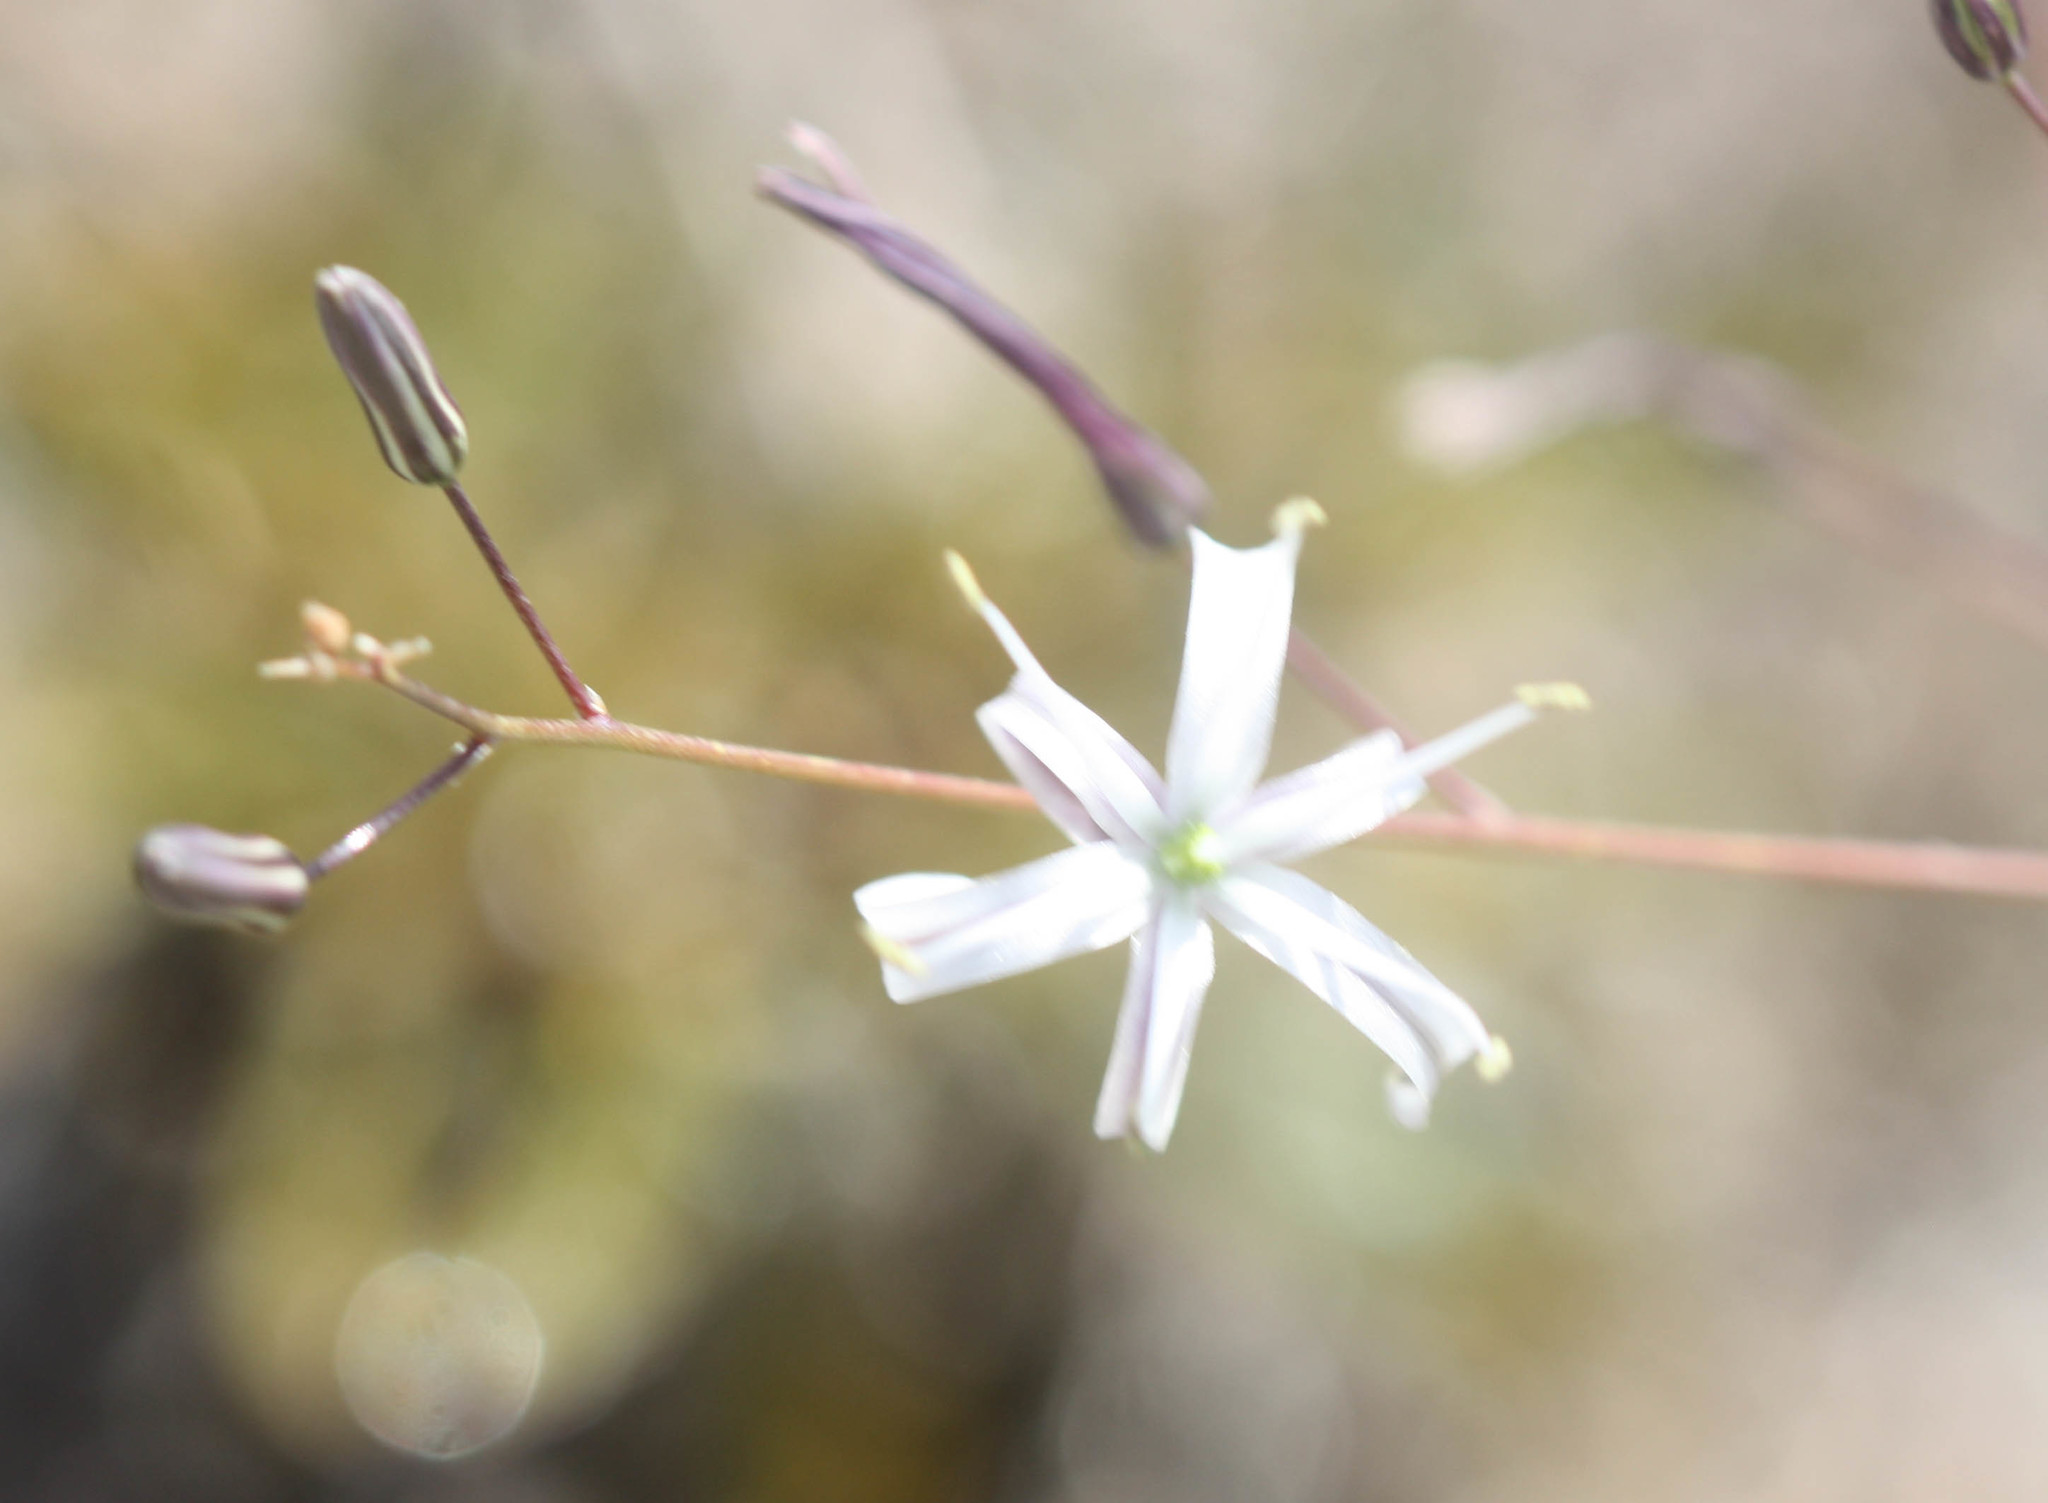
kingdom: Plantae
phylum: Tracheophyta
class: Liliopsida
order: Asparagales
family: Asparagaceae
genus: Chlorogalum
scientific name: Chlorogalum pomeridianum
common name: Amole
